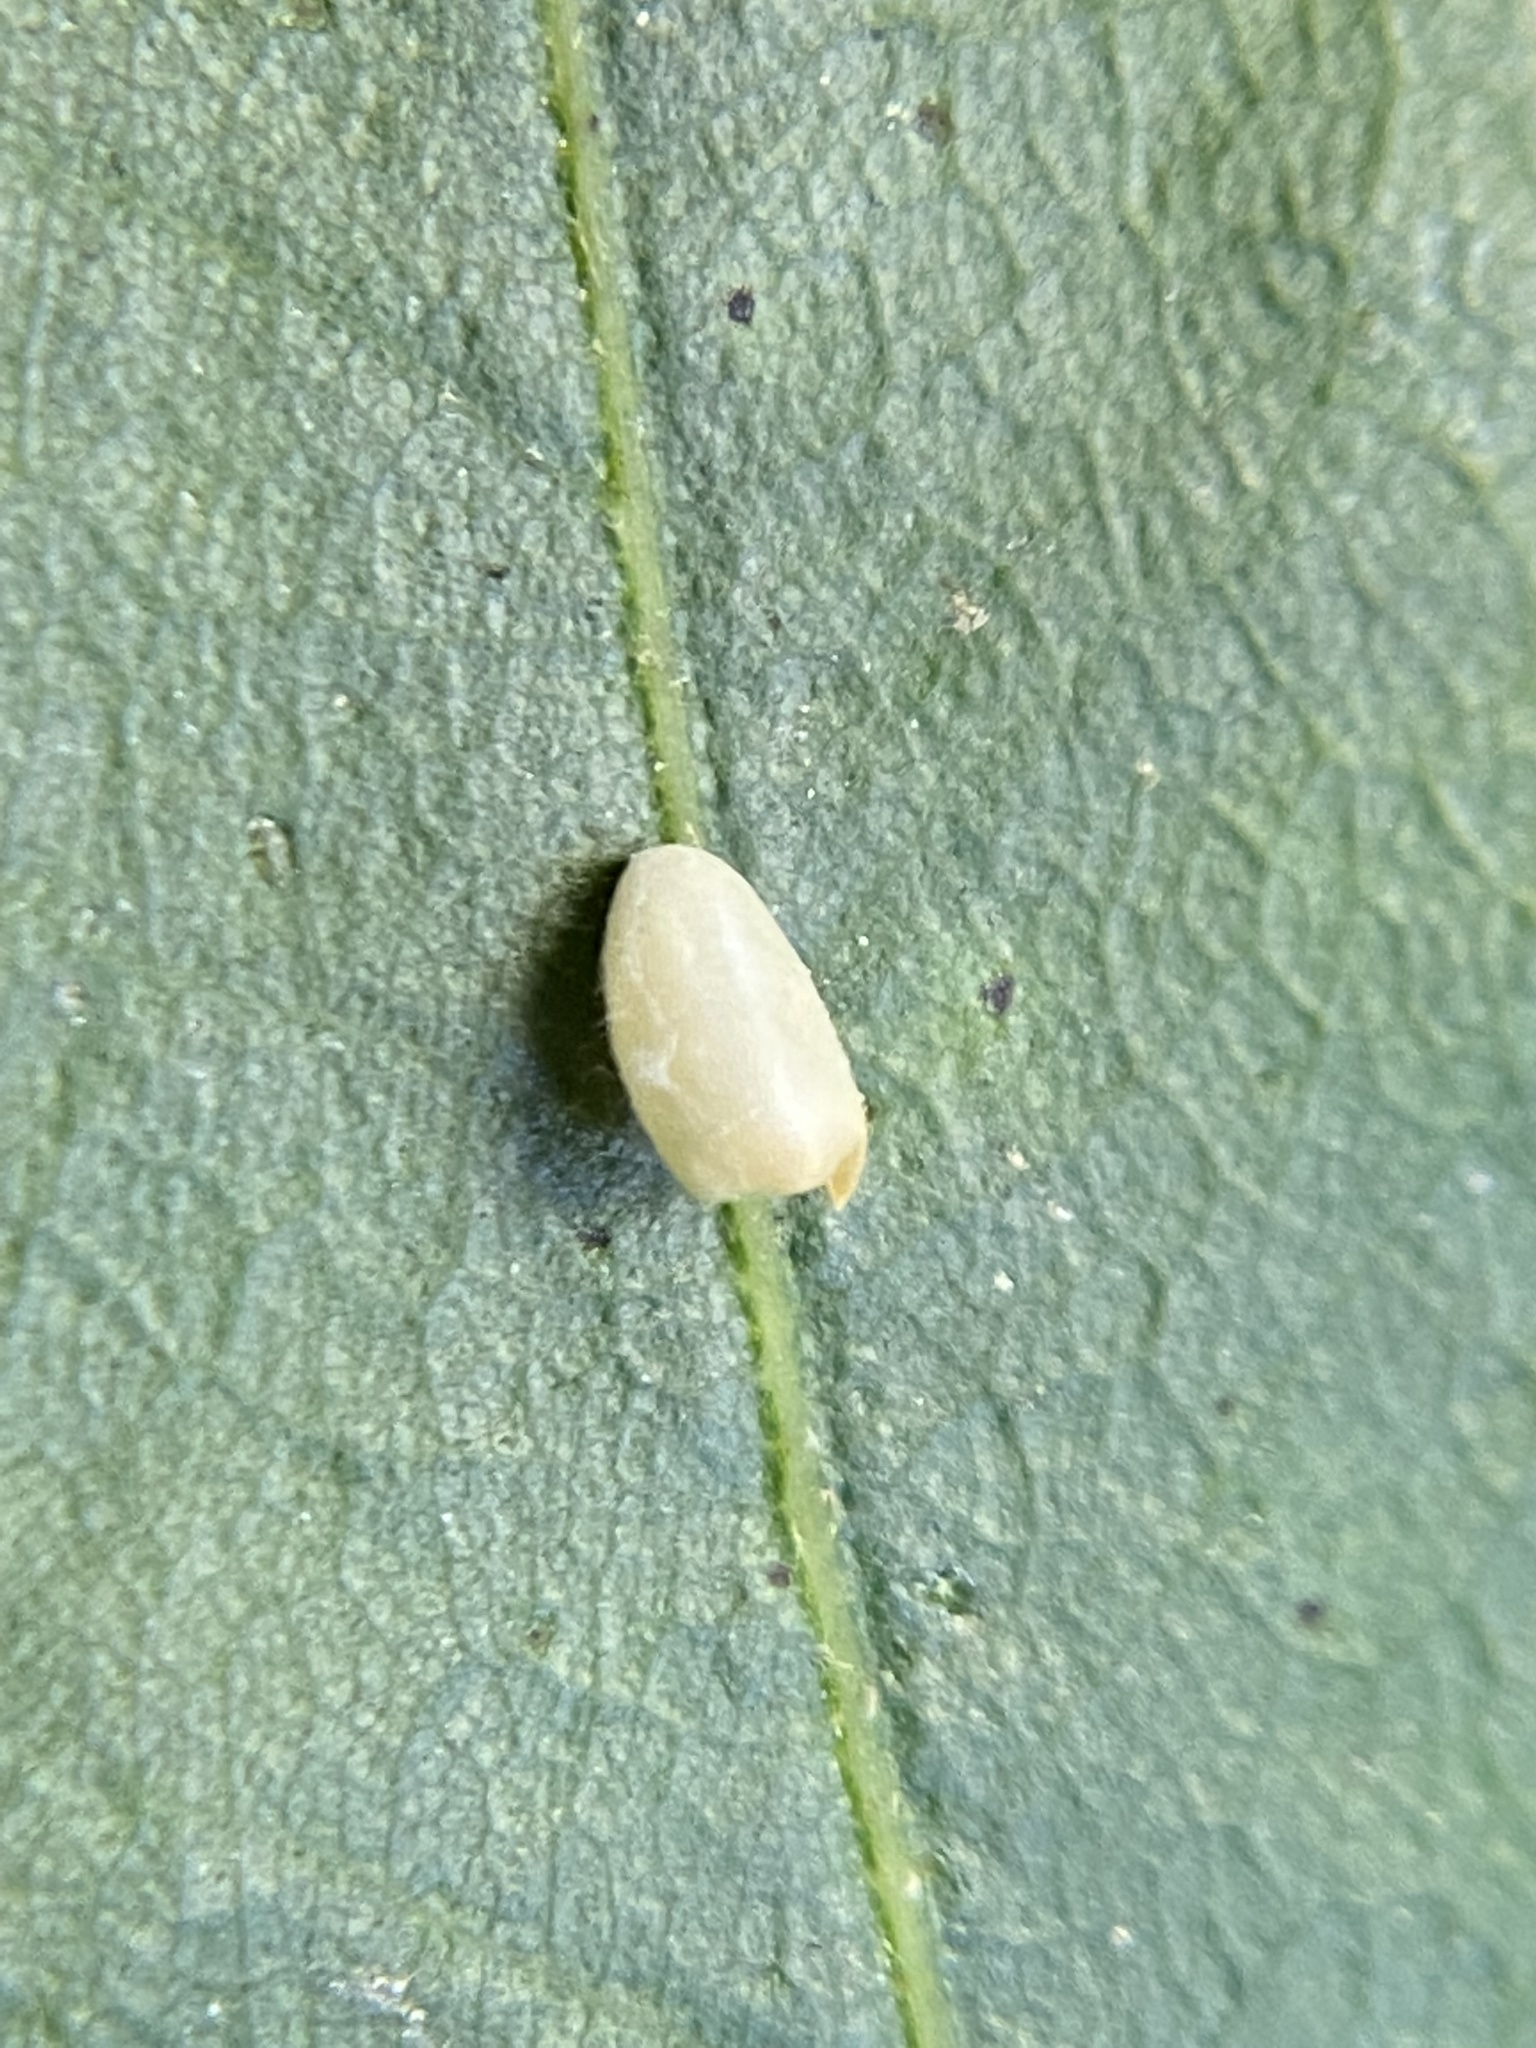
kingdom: Animalia
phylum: Arthropoda
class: Insecta
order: Hymenoptera
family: Cynipidae
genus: Dryocosmus
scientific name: Dryocosmus
